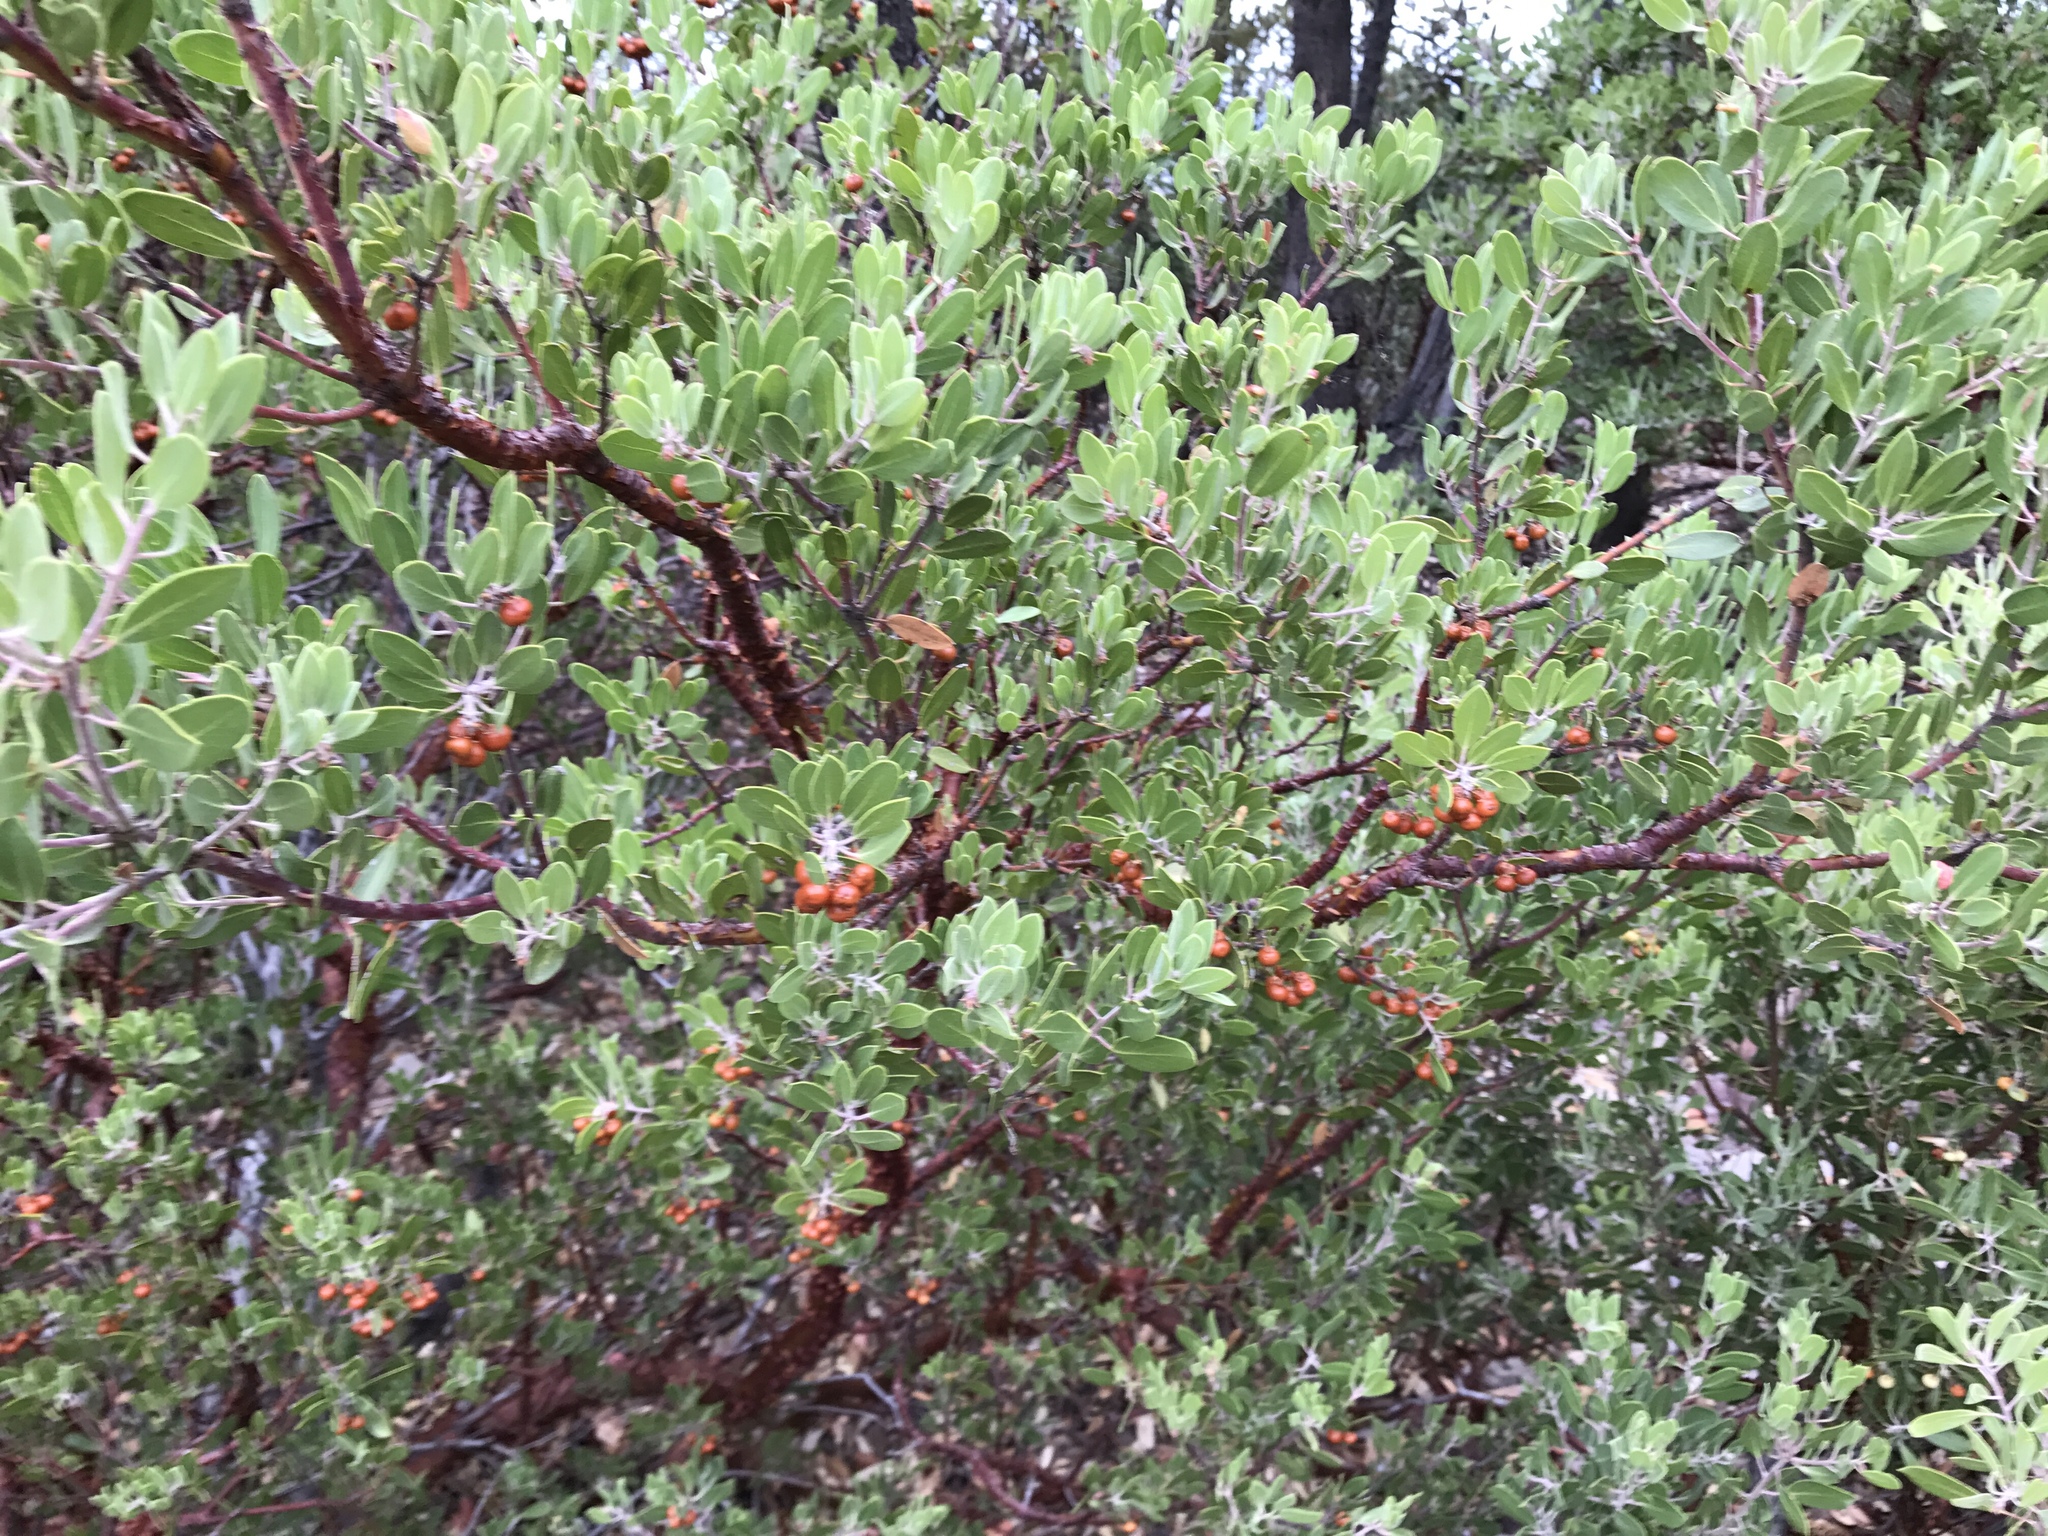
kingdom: Plantae
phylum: Tracheophyta
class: Magnoliopsida
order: Ericales
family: Ericaceae
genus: Arctostaphylos
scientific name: Arctostaphylos pungens
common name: Mexican manzanita
